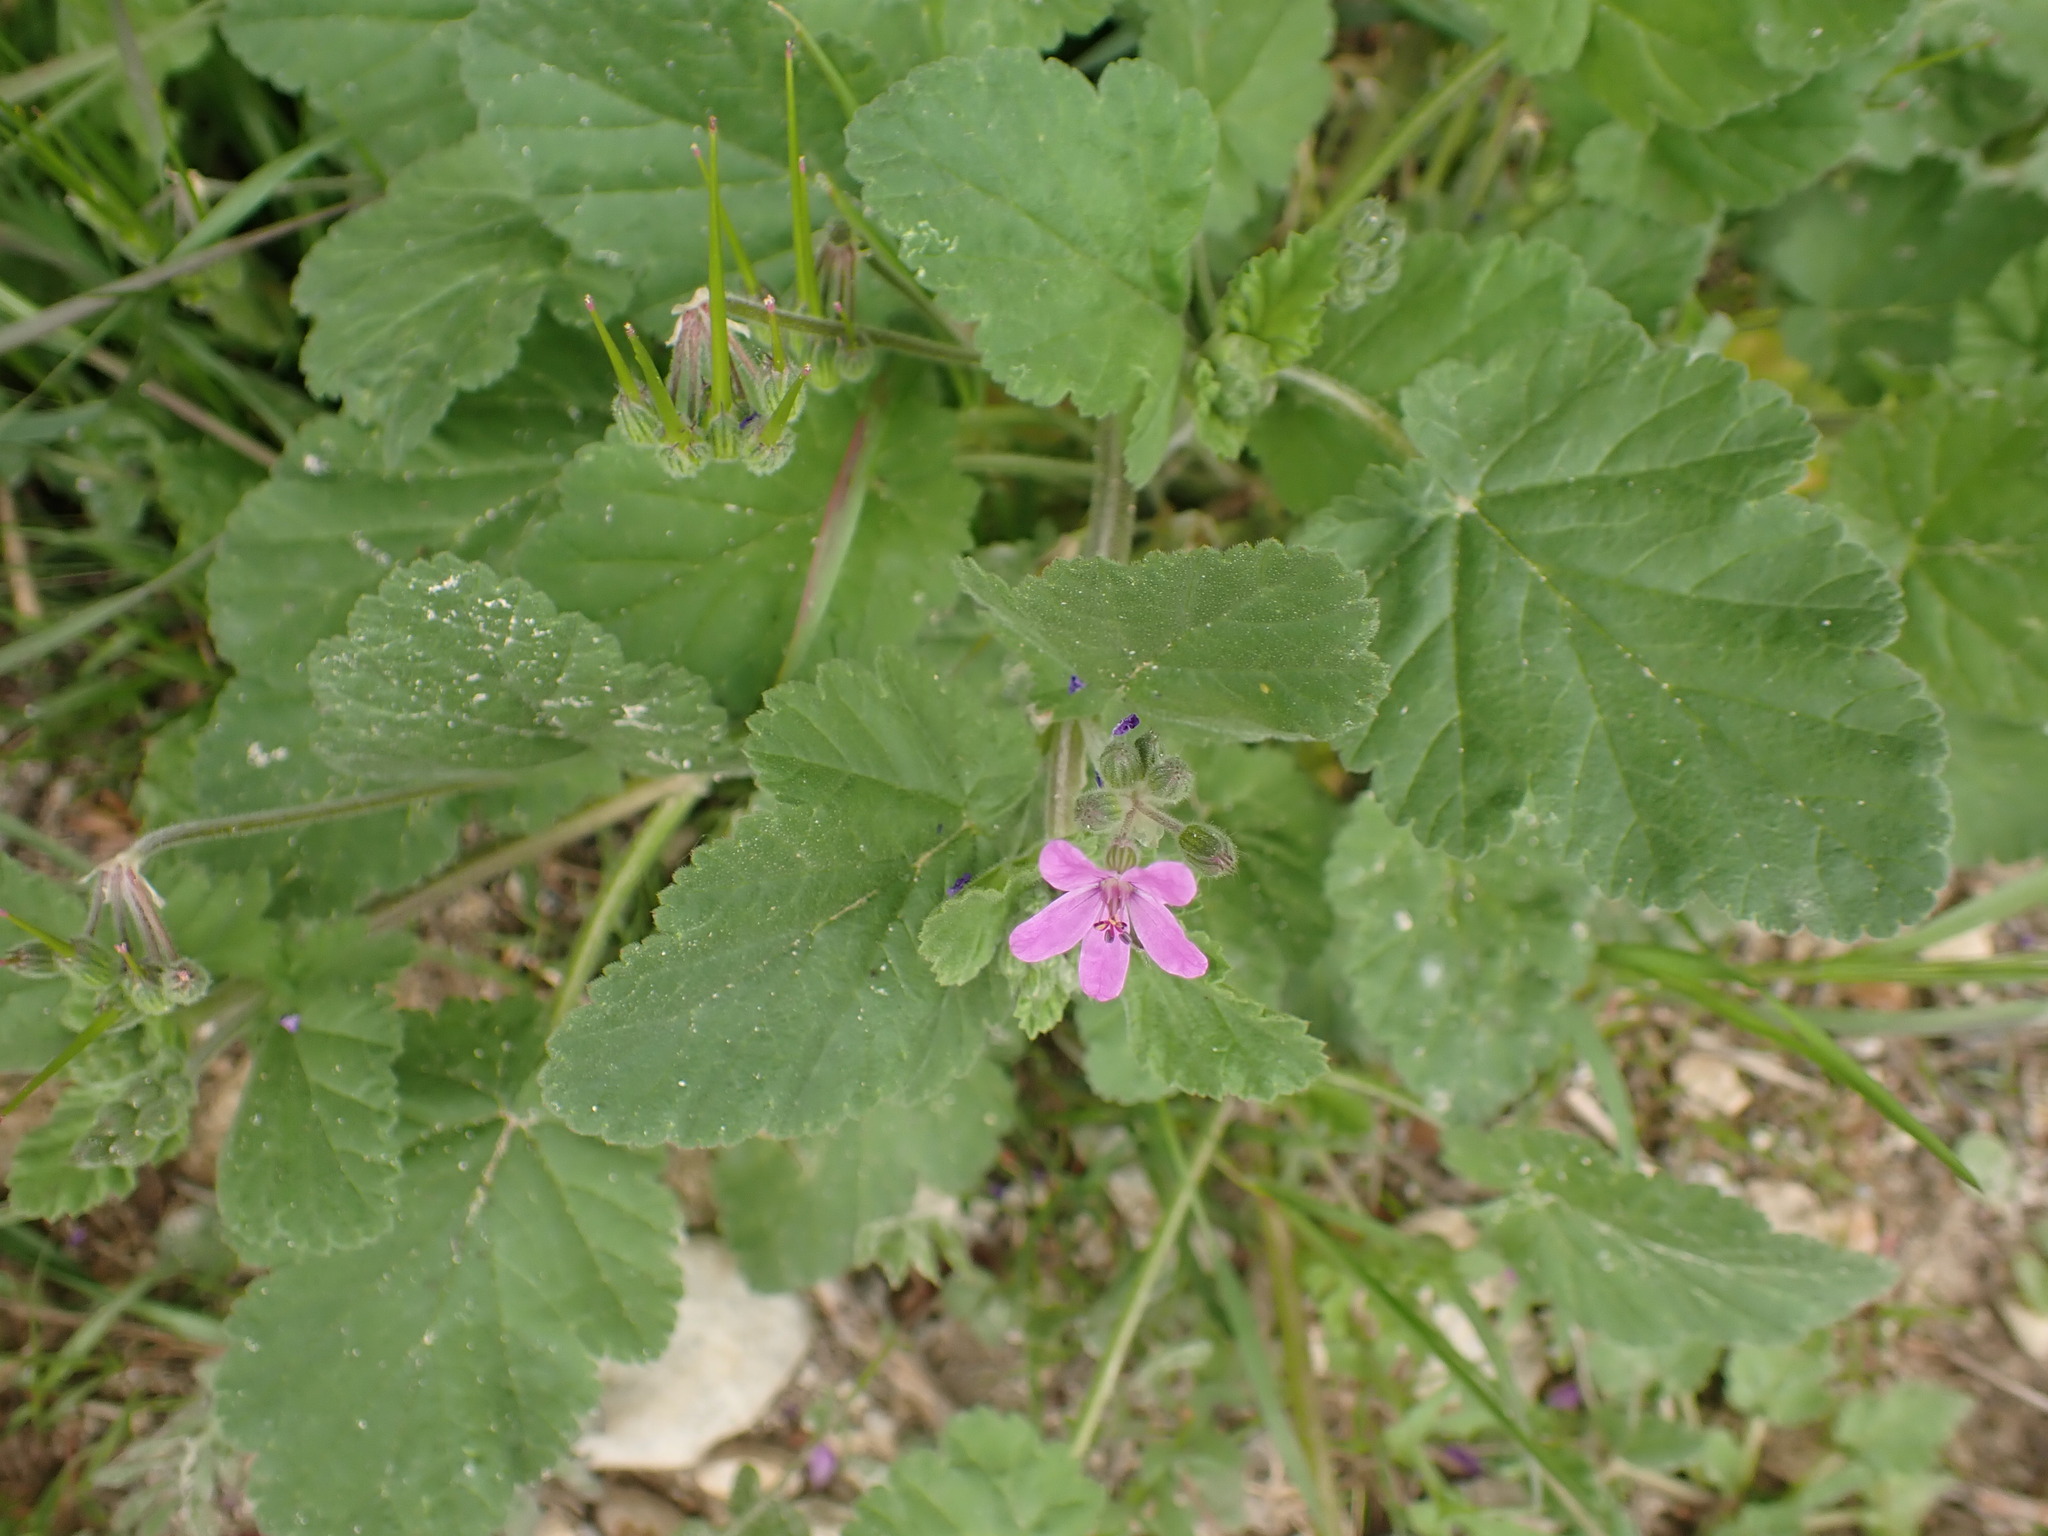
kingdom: Plantae
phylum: Tracheophyta
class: Magnoliopsida
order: Geraniales
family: Geraniaceae
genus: Erodium
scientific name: Erodium malacoides
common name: Soft stork's-bill
